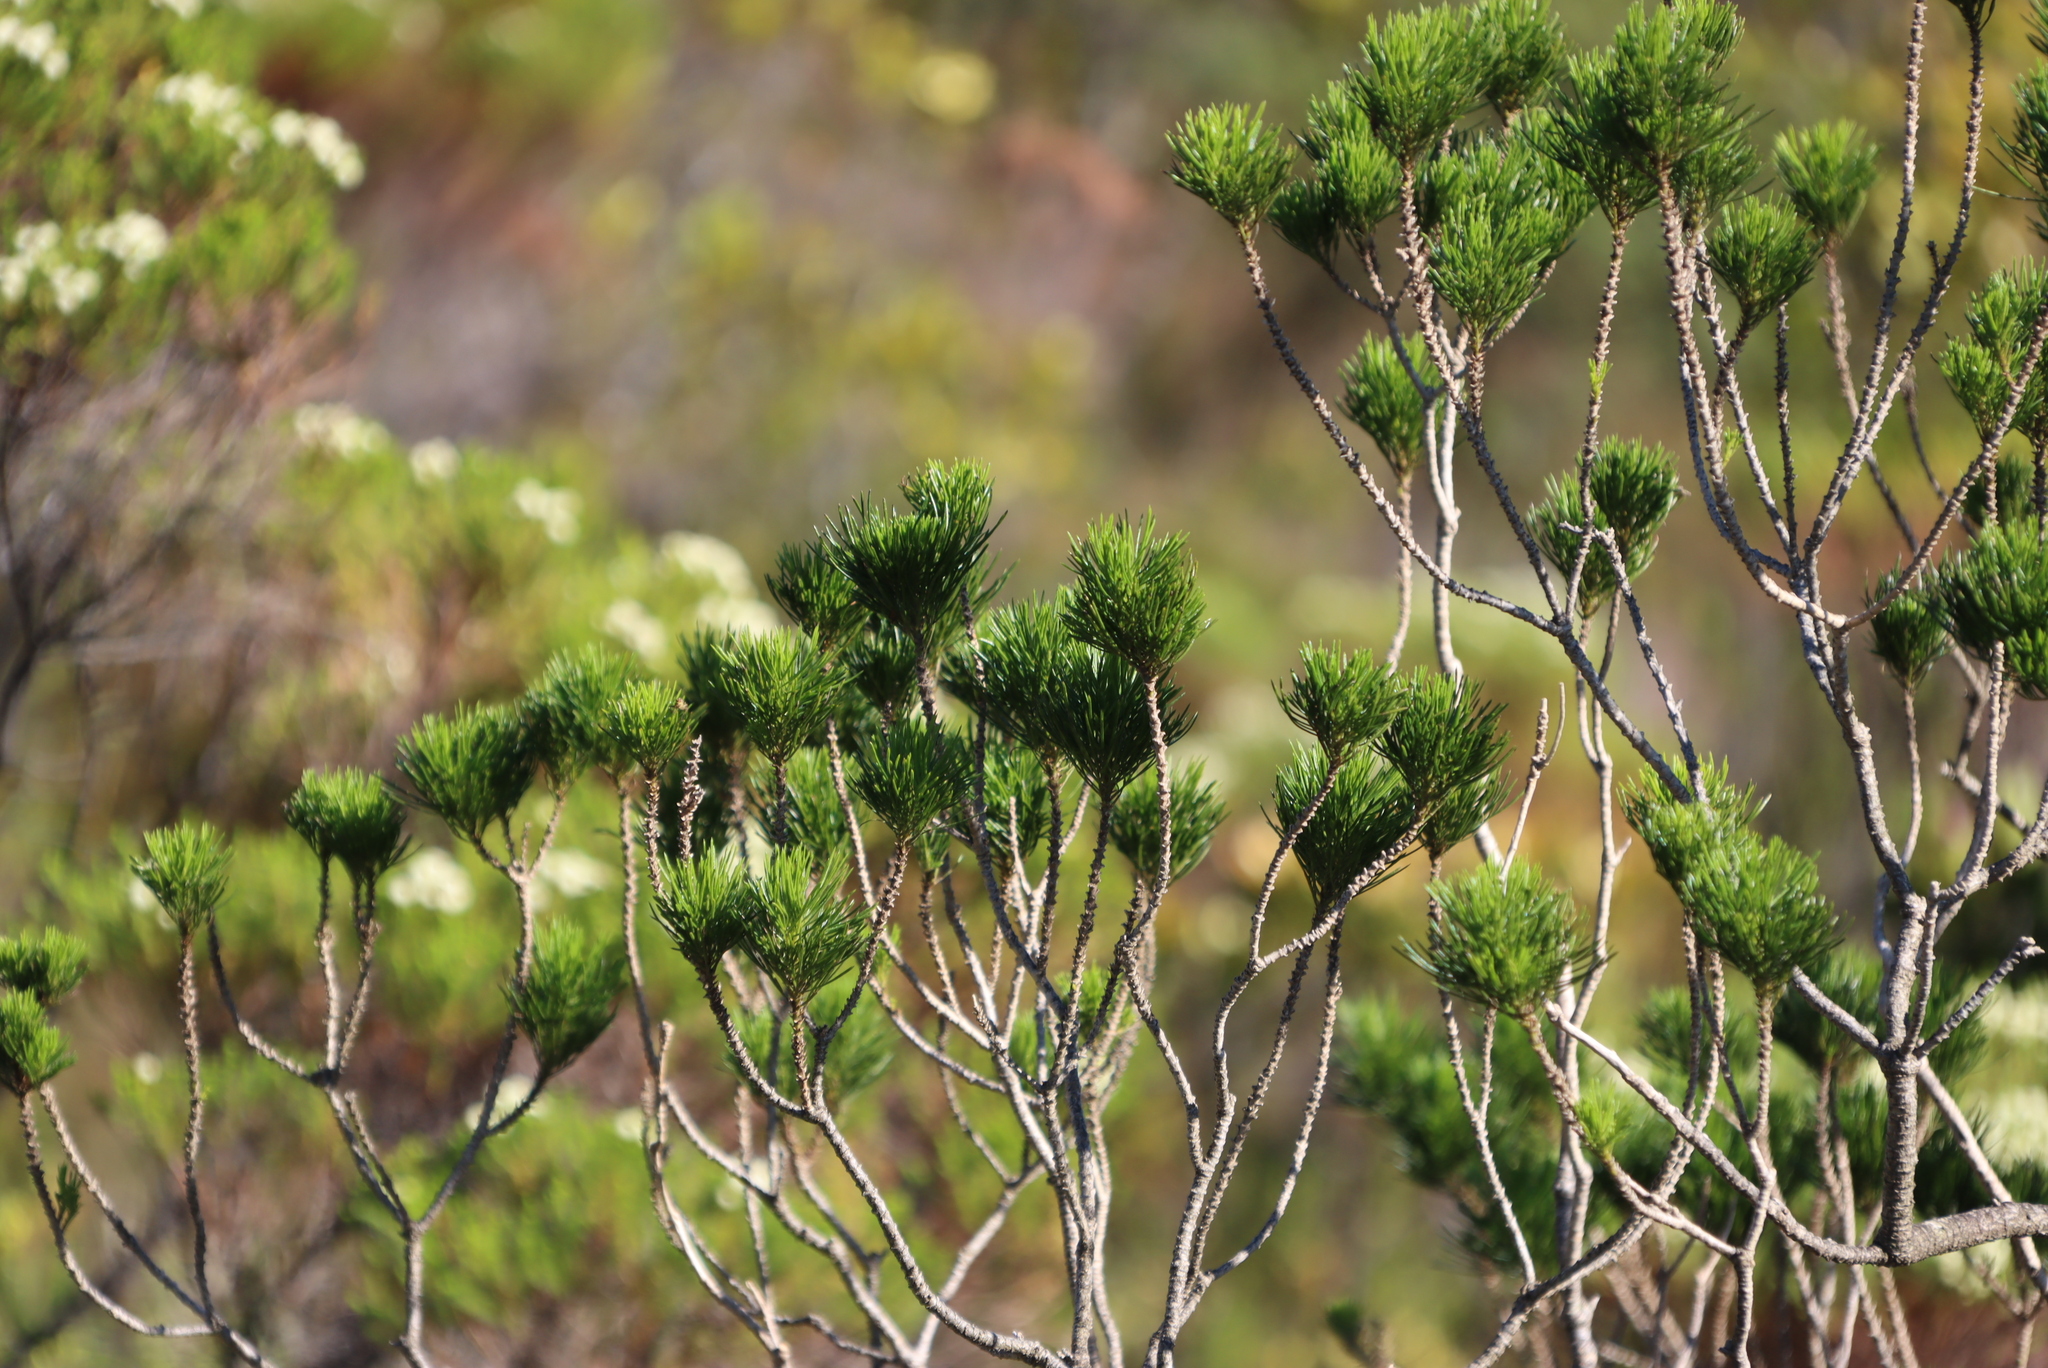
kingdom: Plantae
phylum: Tracheophyta
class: Magnoliopsida
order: Fabales
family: Fabaceae
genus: Psoralea
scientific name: Psoralea pinnata
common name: African scurfpea
